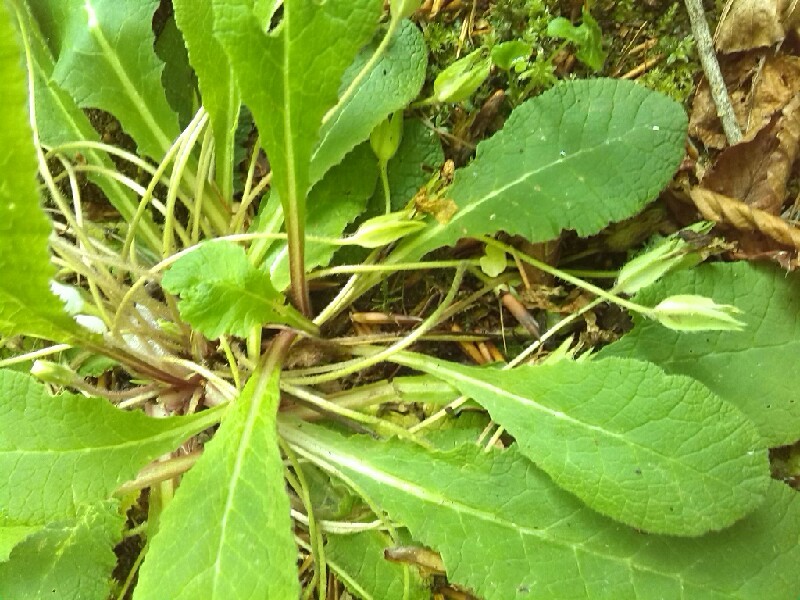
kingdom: Plantae
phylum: Tracheophyta
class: Magnoliopsida
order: Ericales
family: Primulaceae
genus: Primula
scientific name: Primula vulgaris
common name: Primrose
